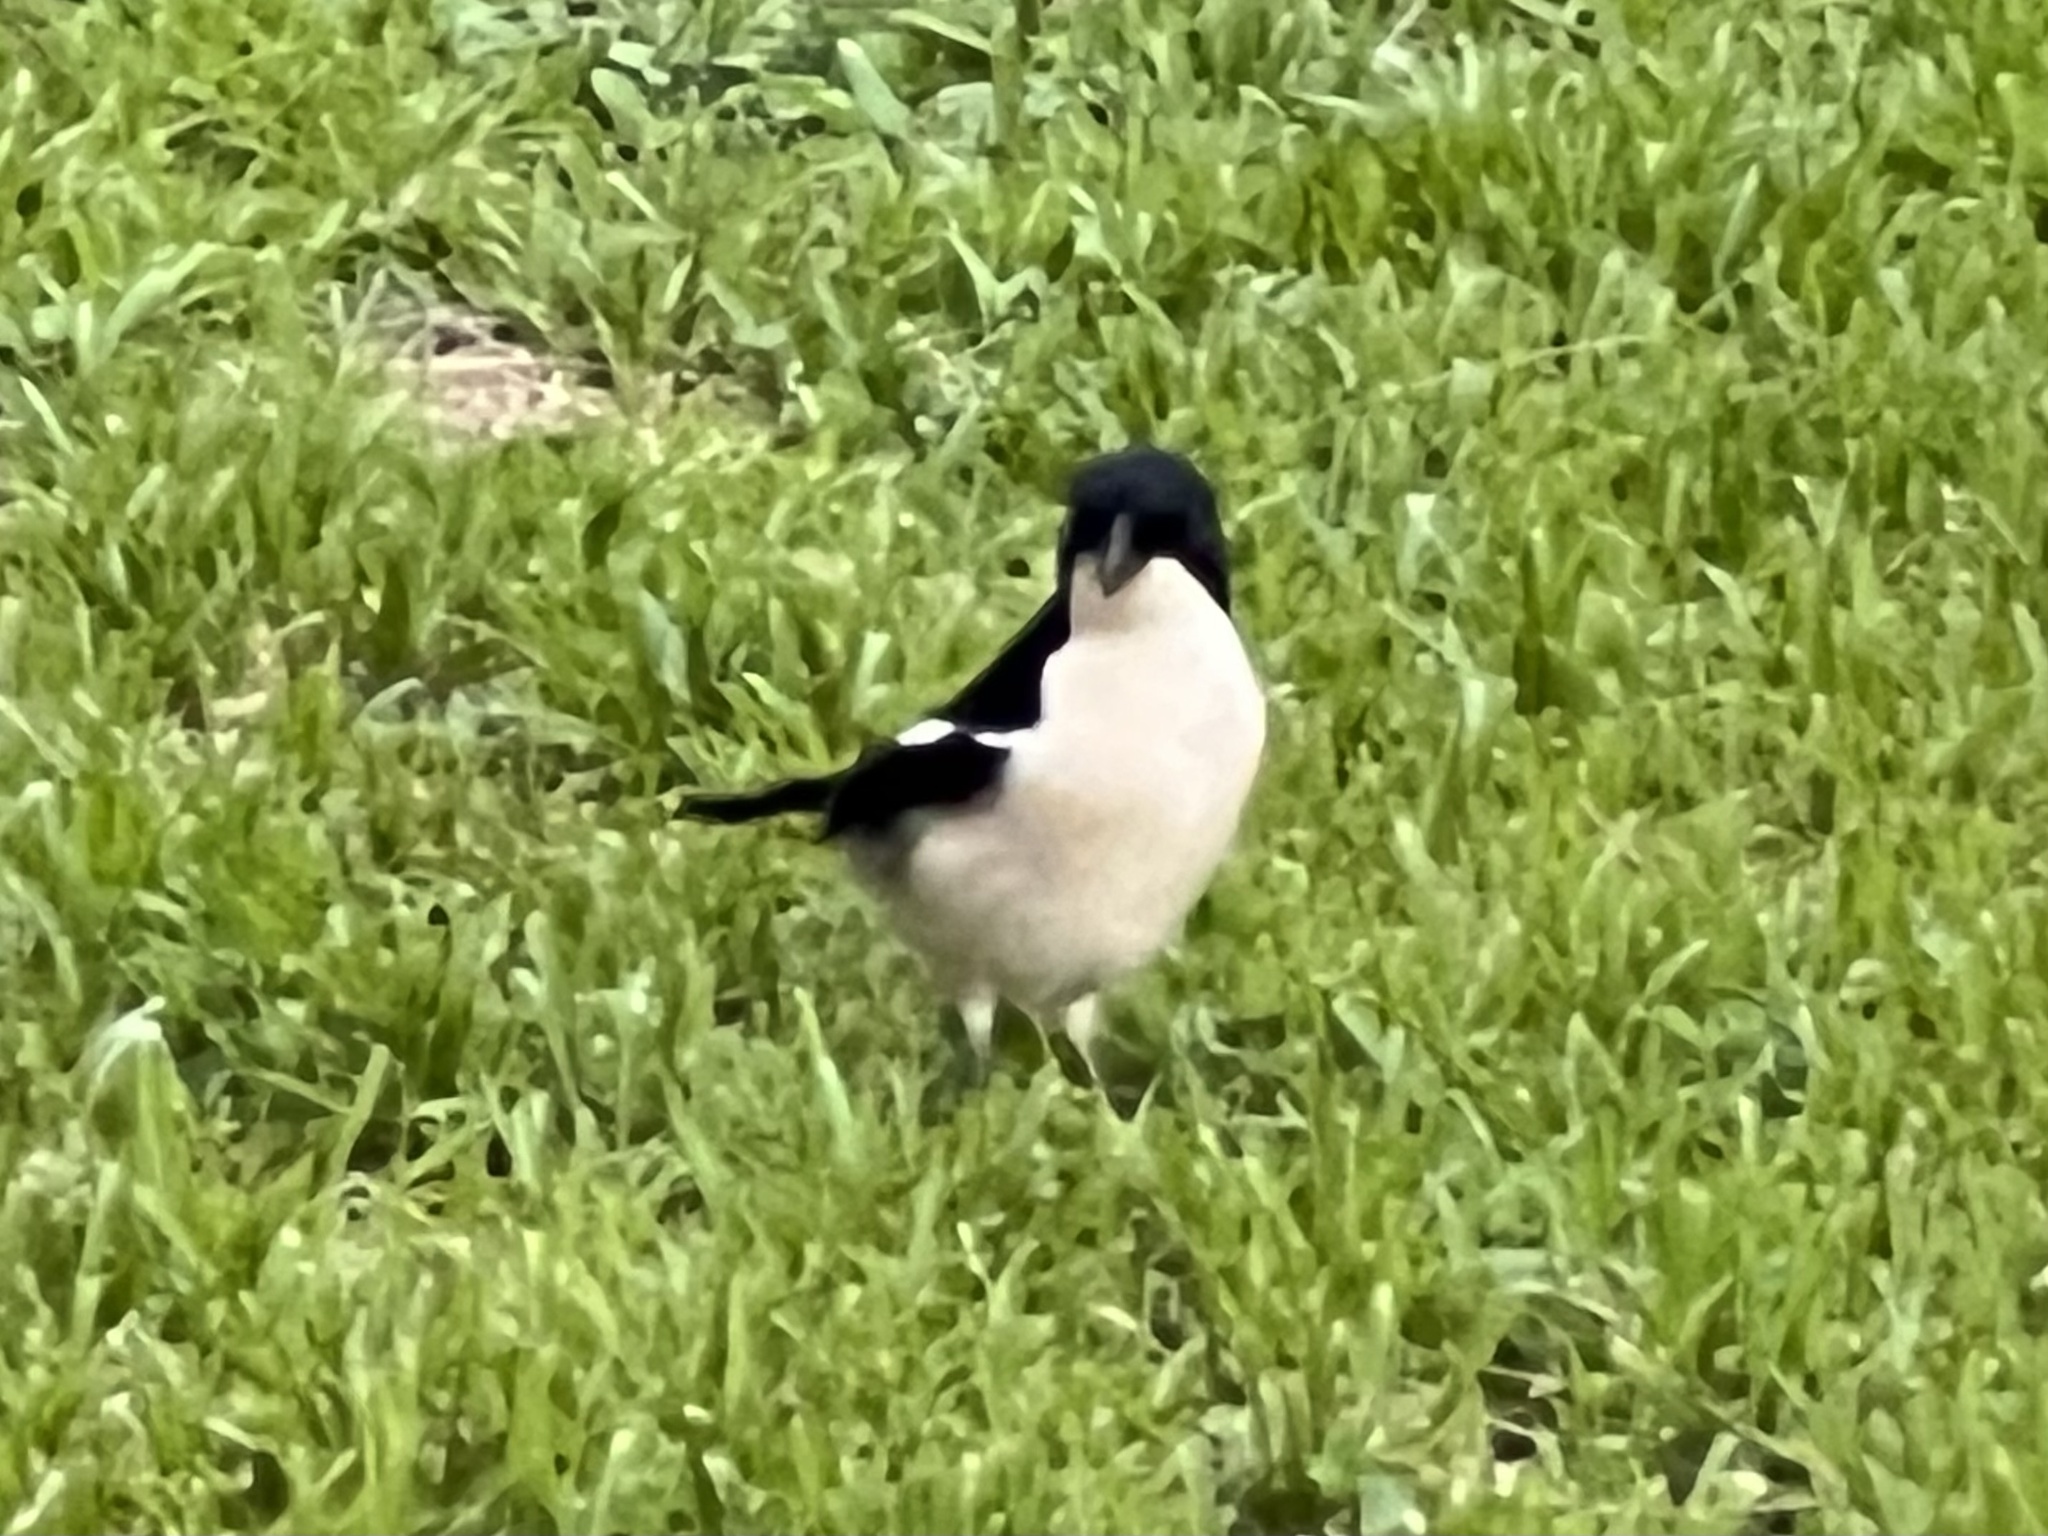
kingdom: Animalia
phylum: Chordata
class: Aves
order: Passeriformes
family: Malaconotidae
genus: Laniarius
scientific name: Laniarius major
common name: Tropical boubou
